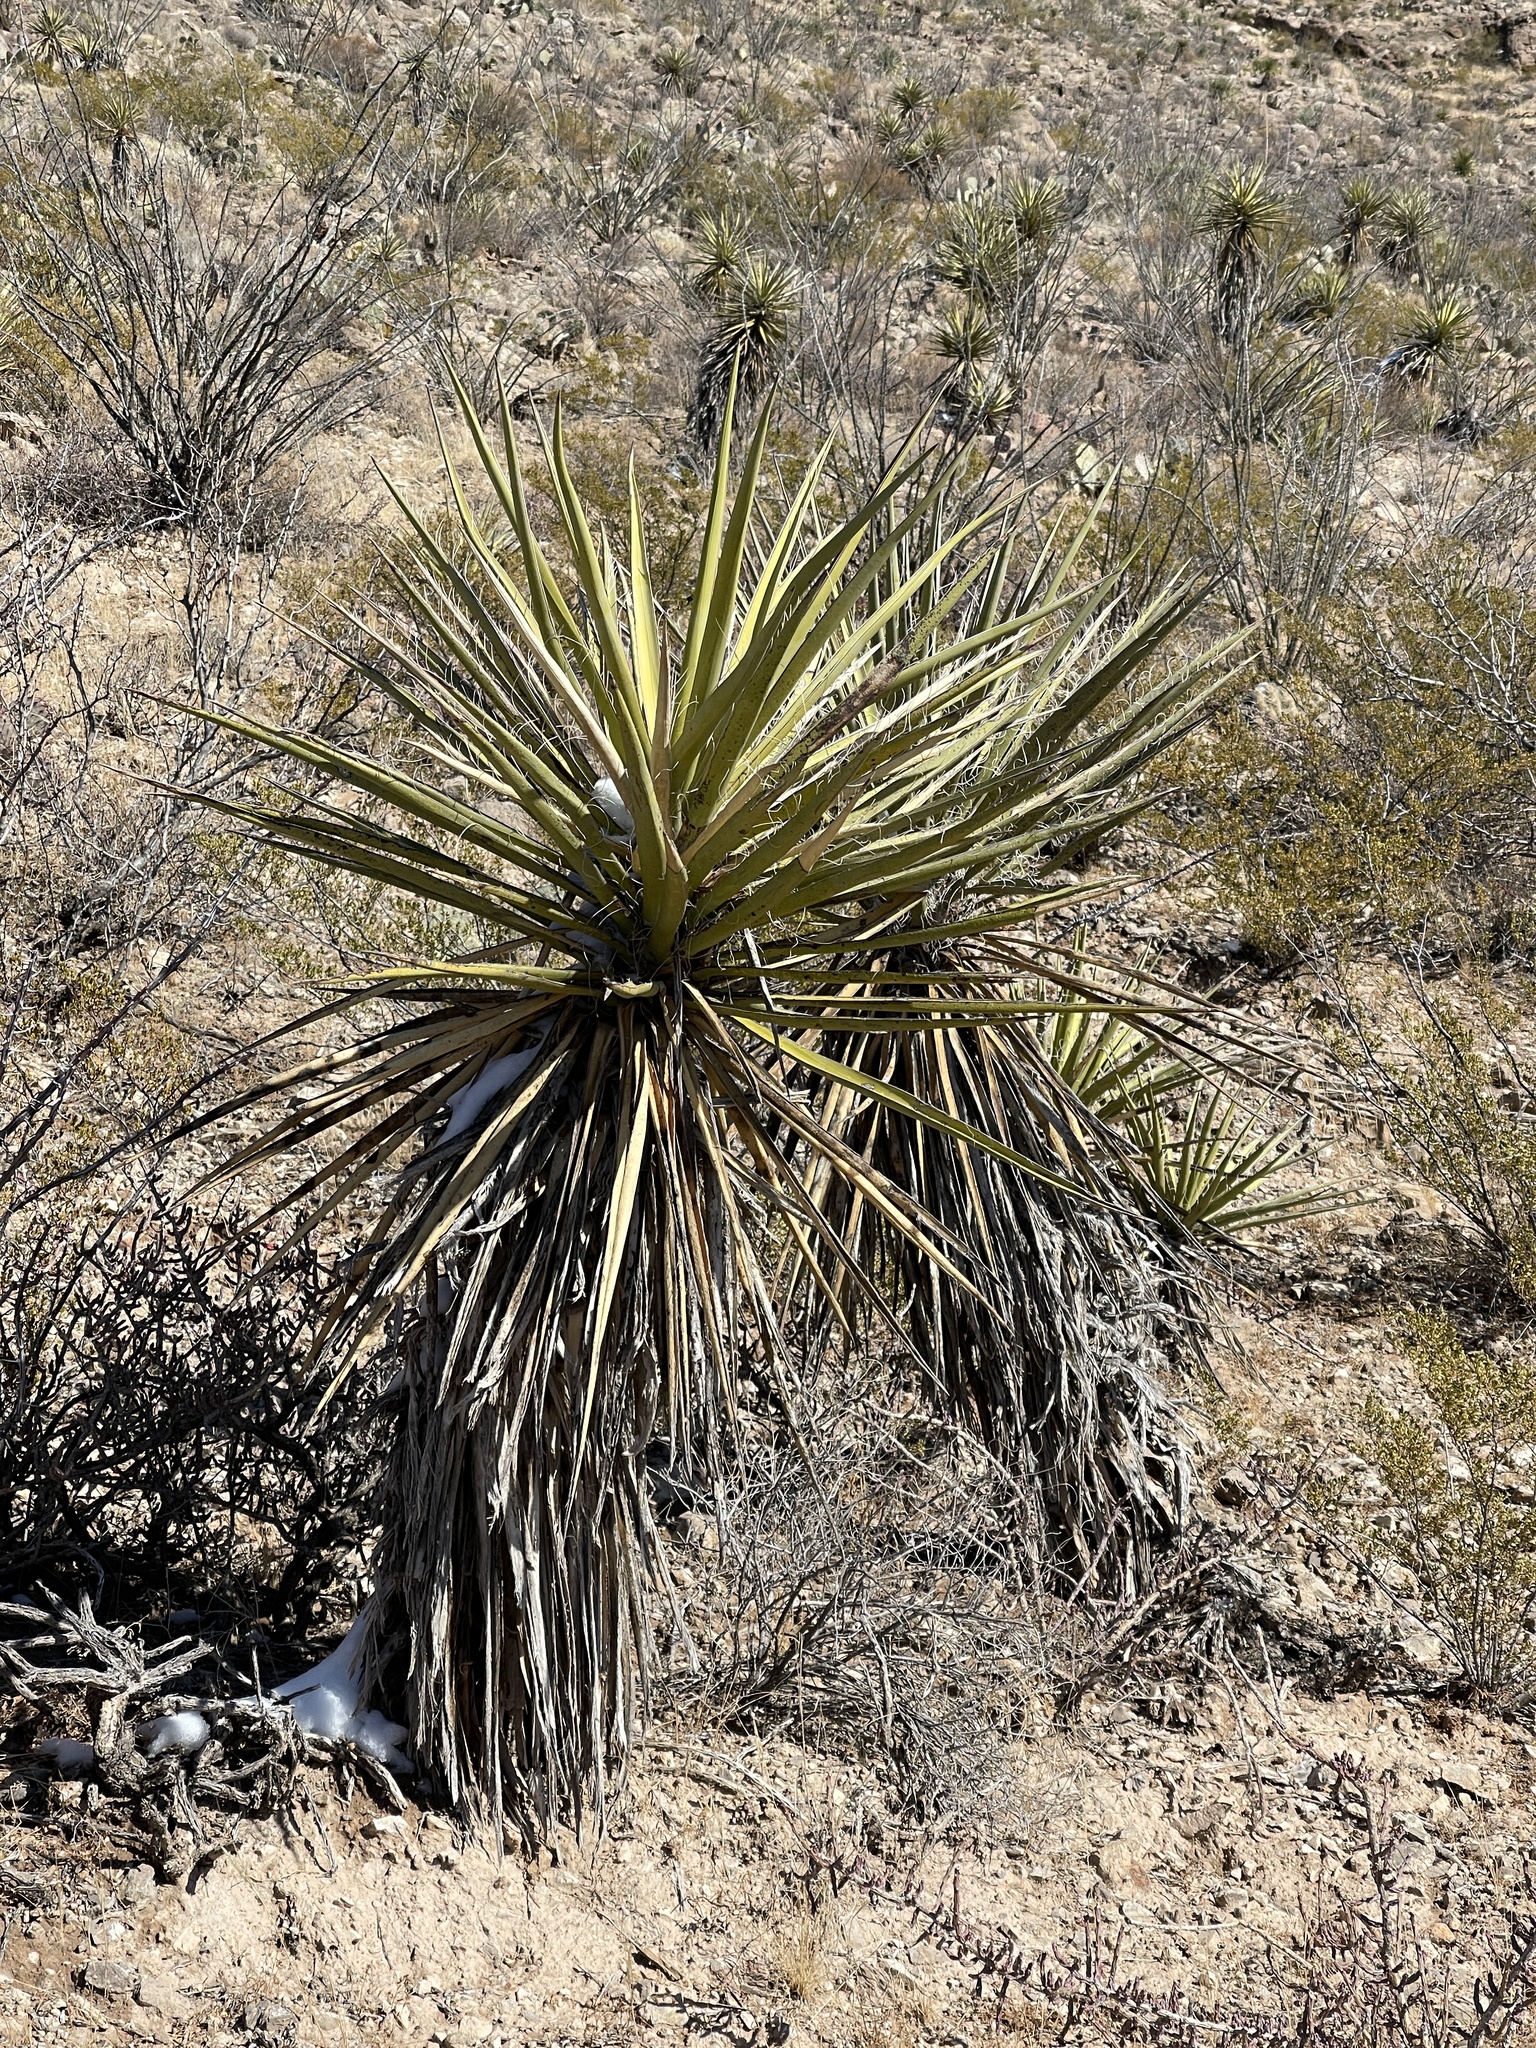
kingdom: Plantae
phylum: Tracheophyta
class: Liliopsida
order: Asparagales
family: Asparagaceae
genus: Yucca
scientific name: Yucca treculiana
